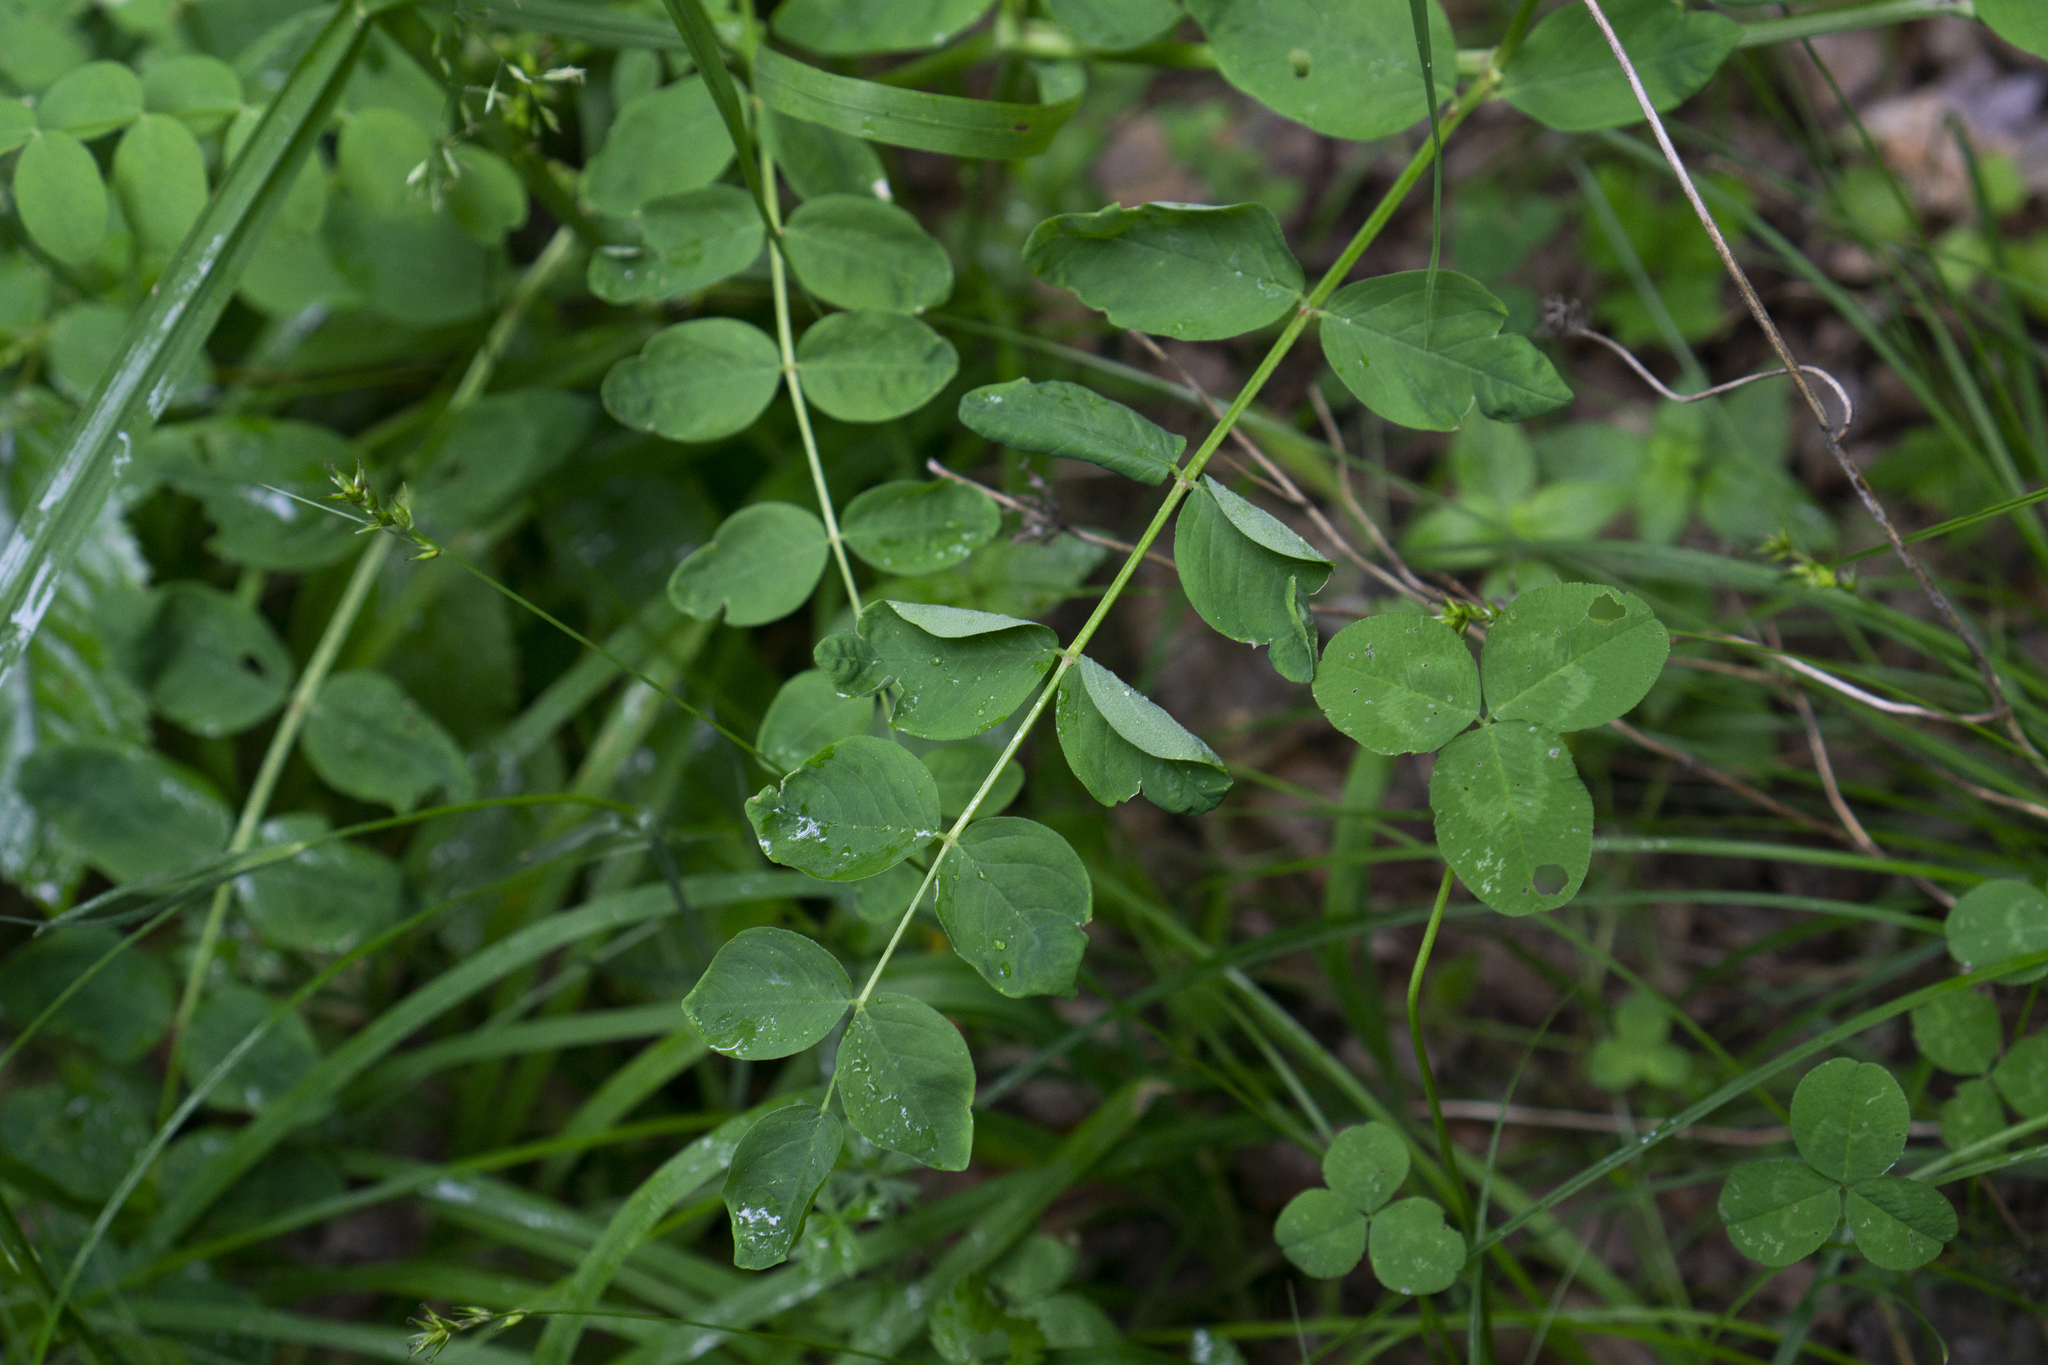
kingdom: Plantae
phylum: Tracheophyta
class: Magnoliopsida
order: Fabales
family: Fabaceae
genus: Astragalus
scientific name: Astragalus glycyphyllos
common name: Wild liquorice
